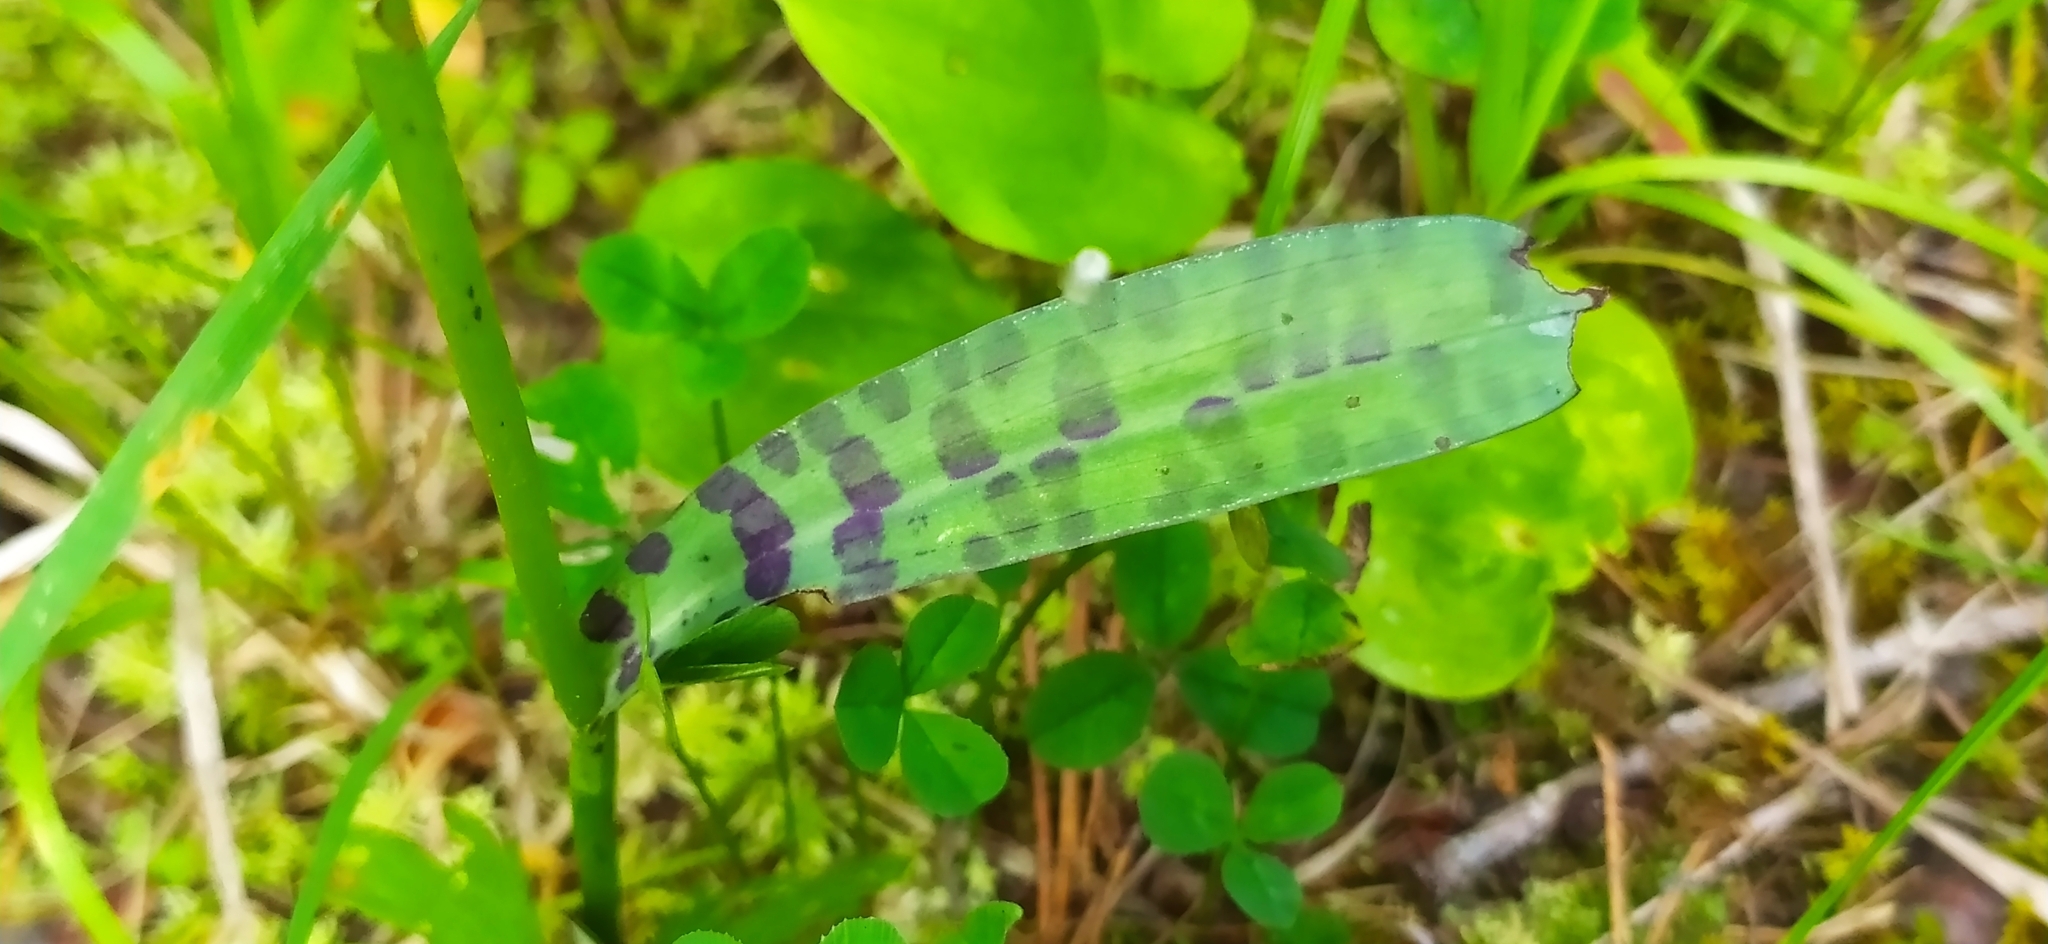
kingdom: Plantae
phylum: Tracheophyta
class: Liliopsida
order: Asparagales
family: Orchidaceae
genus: Dactylorhiza
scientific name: Dactylorhiza maculata
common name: Heath spotted-orchid
